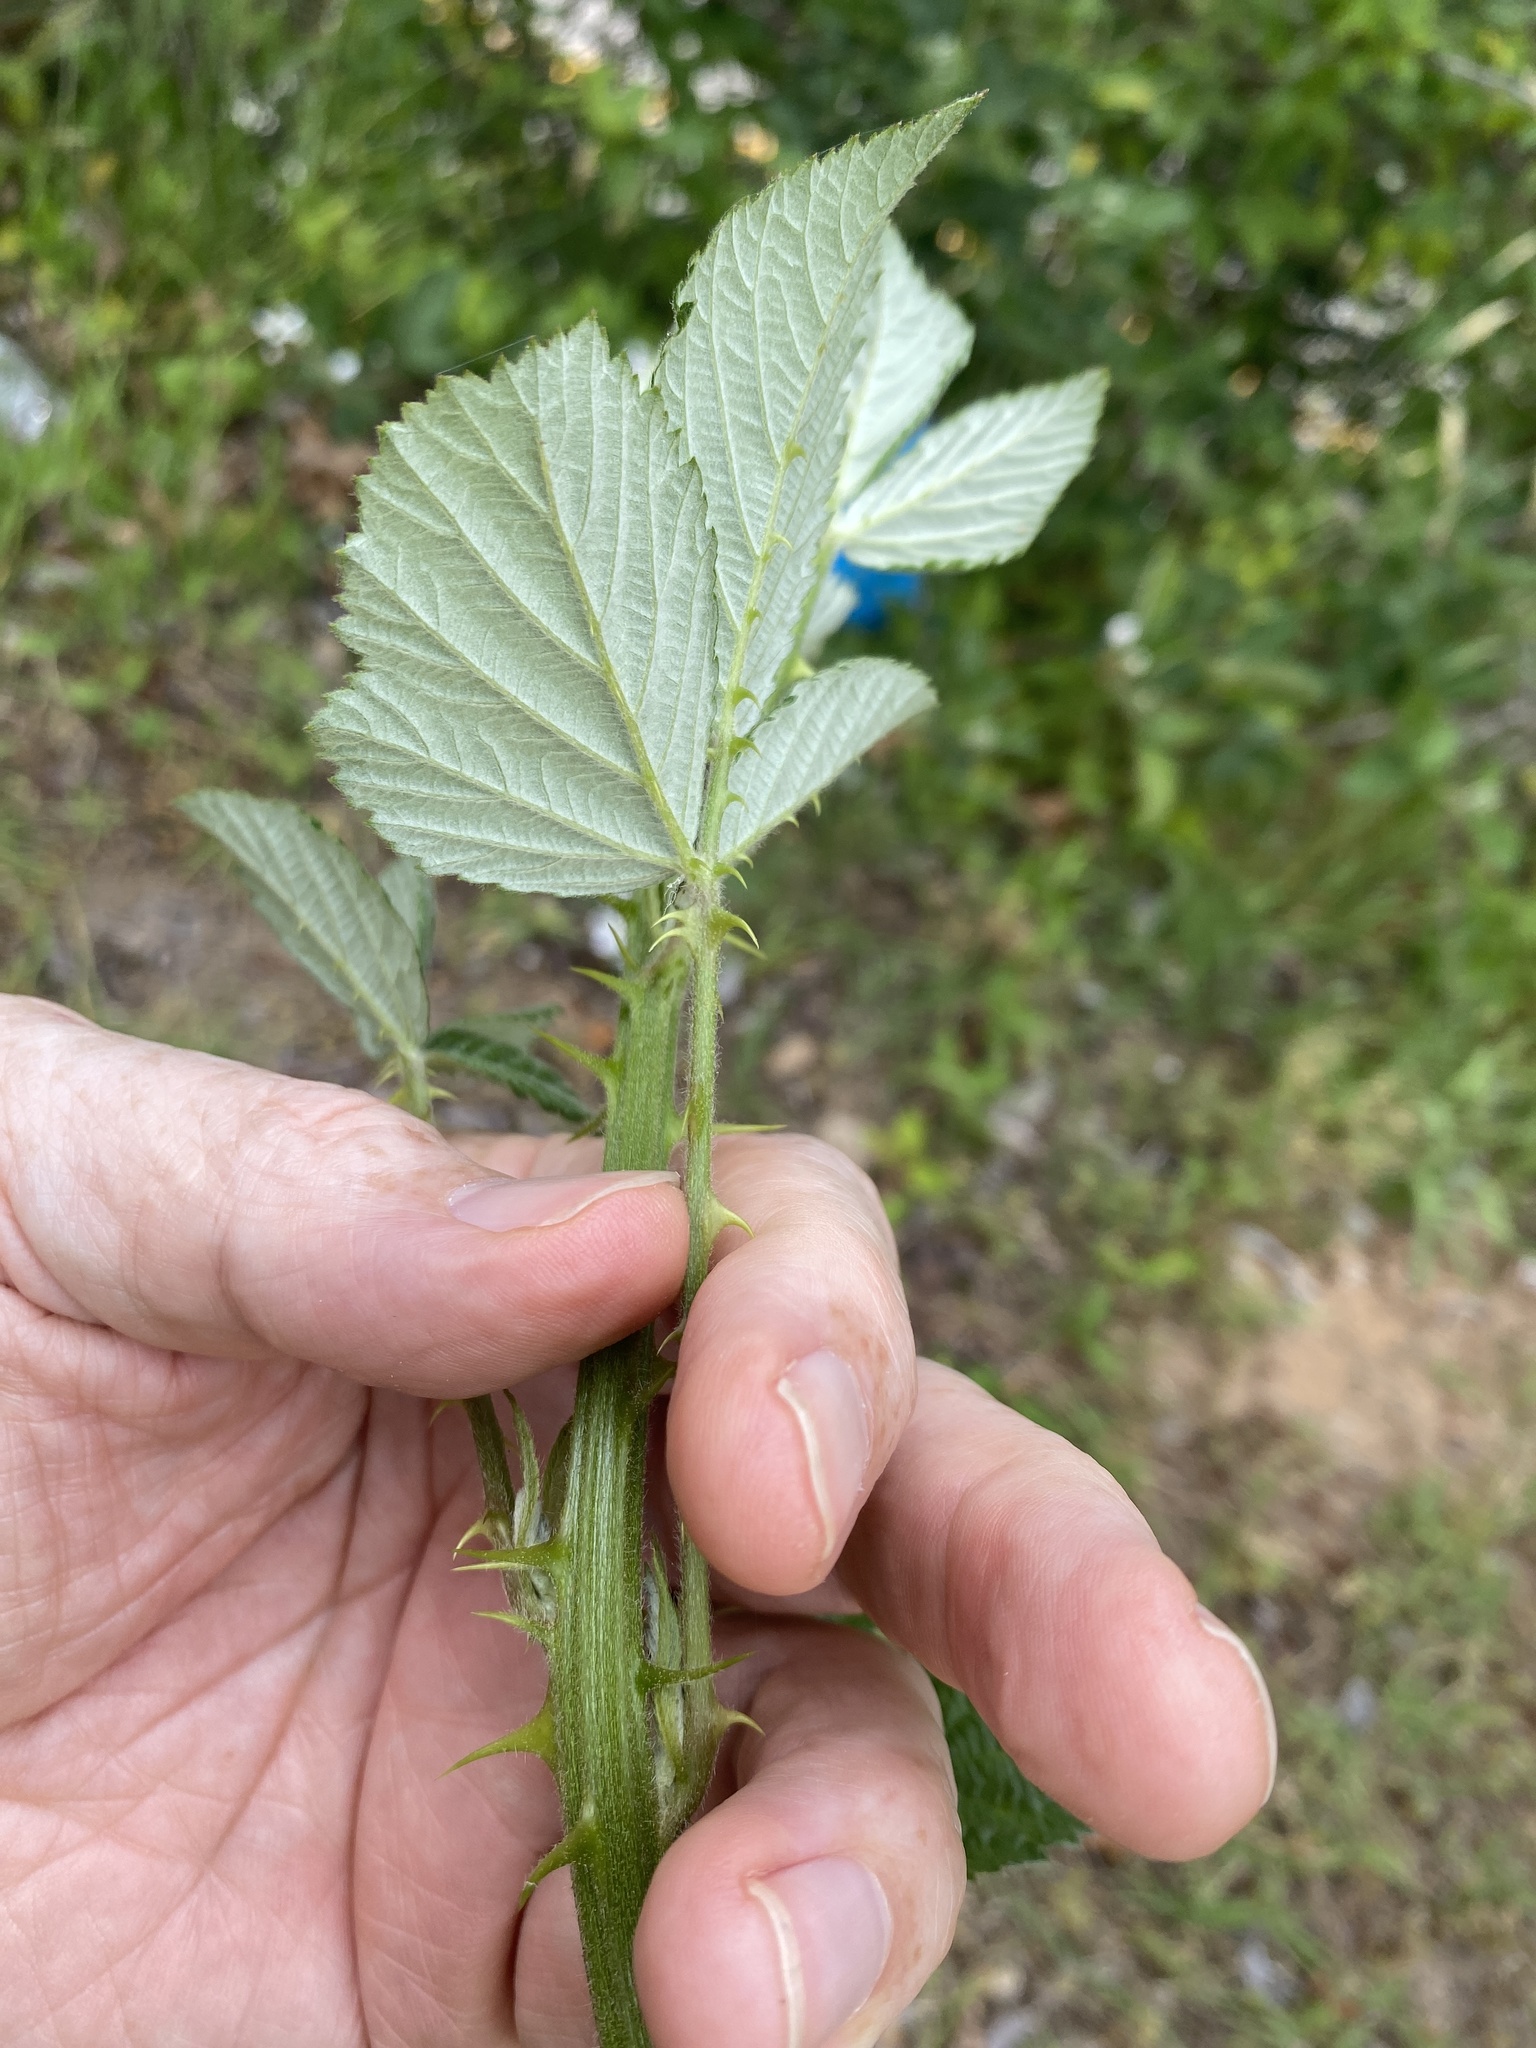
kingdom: Plantae
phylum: Tracheophyta
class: Magnoliopsida
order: Rosales
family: Rosaceae
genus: Rubus
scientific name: Rubus pascuus
